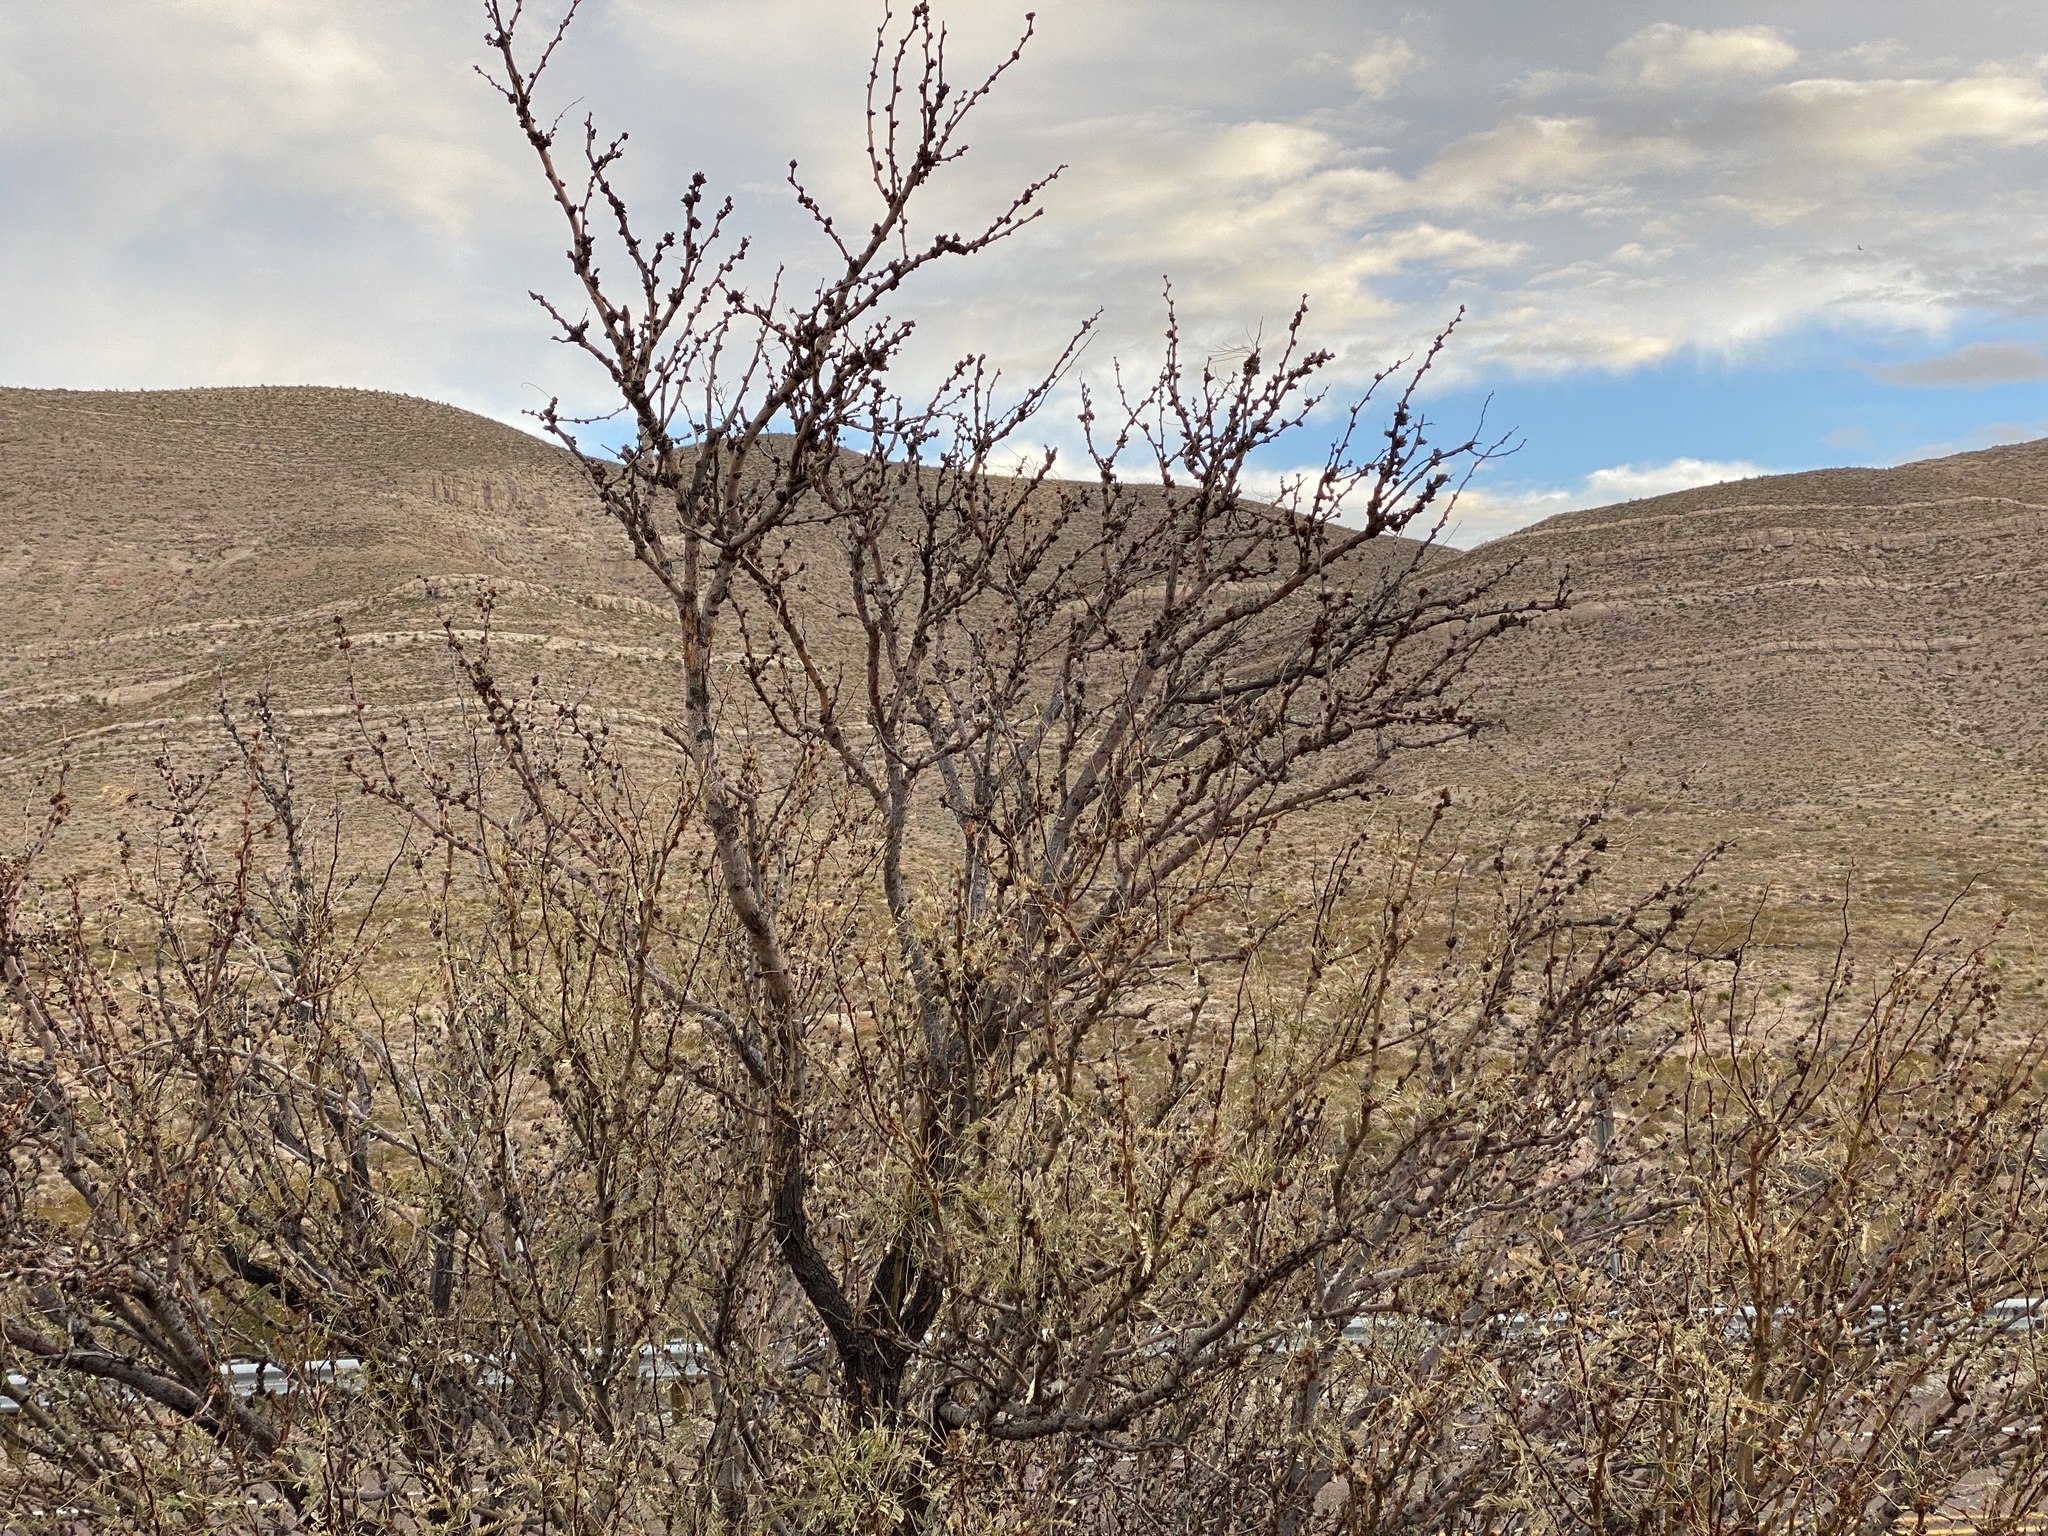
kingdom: Plantae
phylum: Tracheophyta
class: Magnoliopsida
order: Fabales
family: Fabaceae
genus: Prosopis
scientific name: Prosopis glandulosa
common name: Honey mesquite
